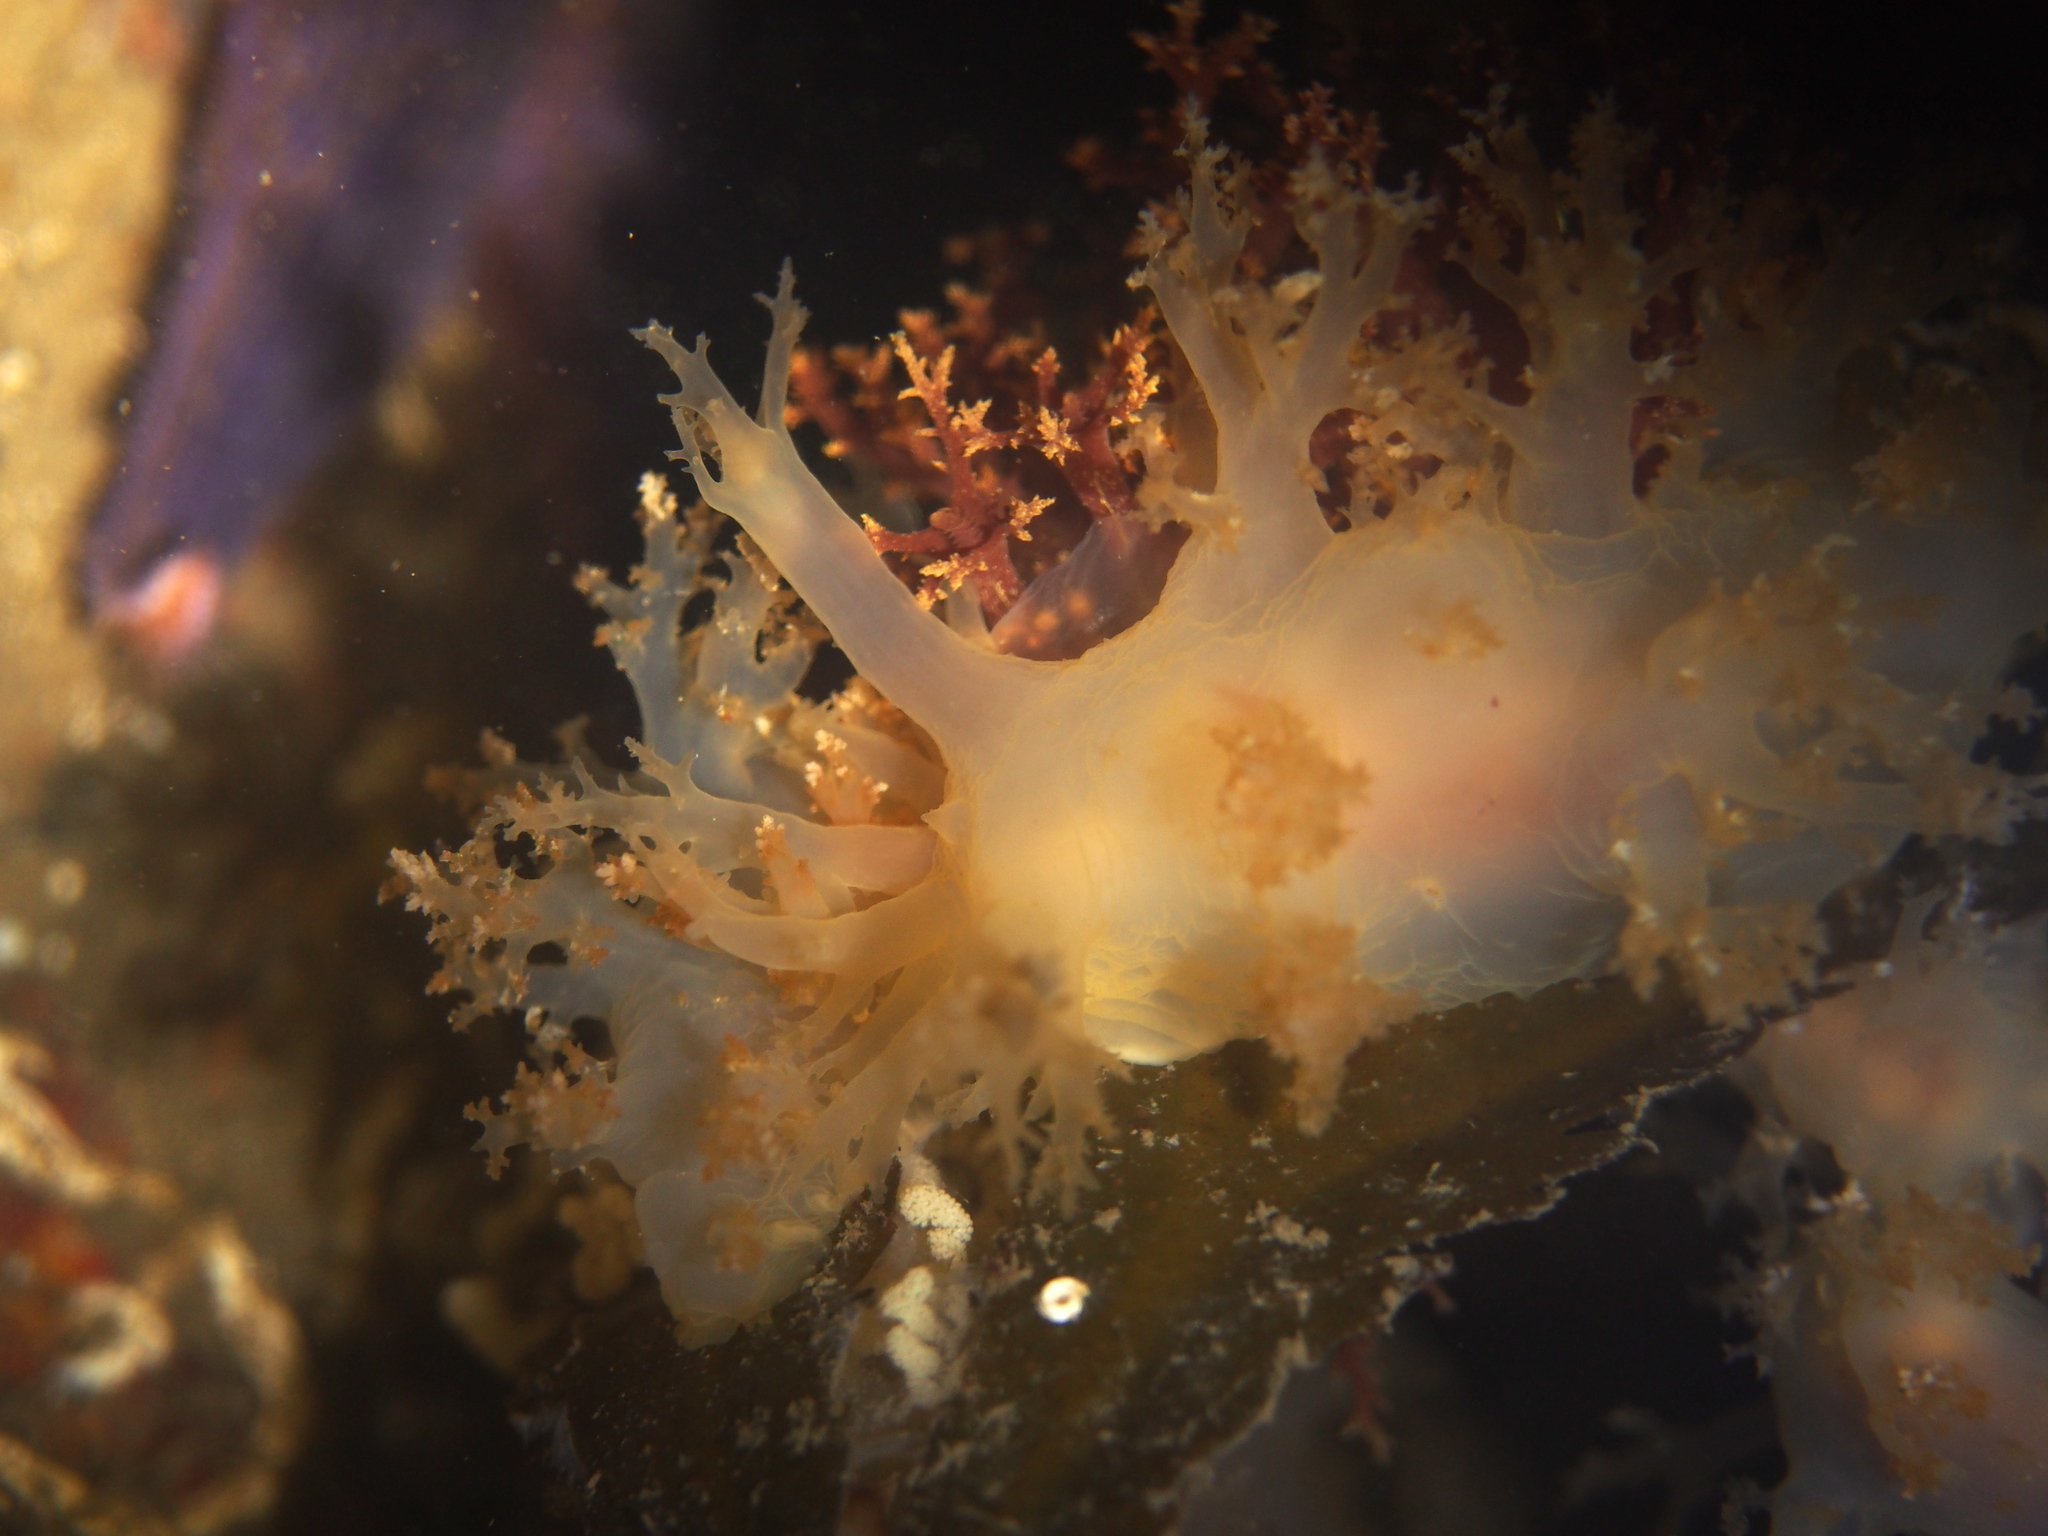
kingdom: Animalia
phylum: Mollusca
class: Gastropoda
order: Nudibranchia
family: Dendronotidae
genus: Dendronotus
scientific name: Dendronotus lacteus
